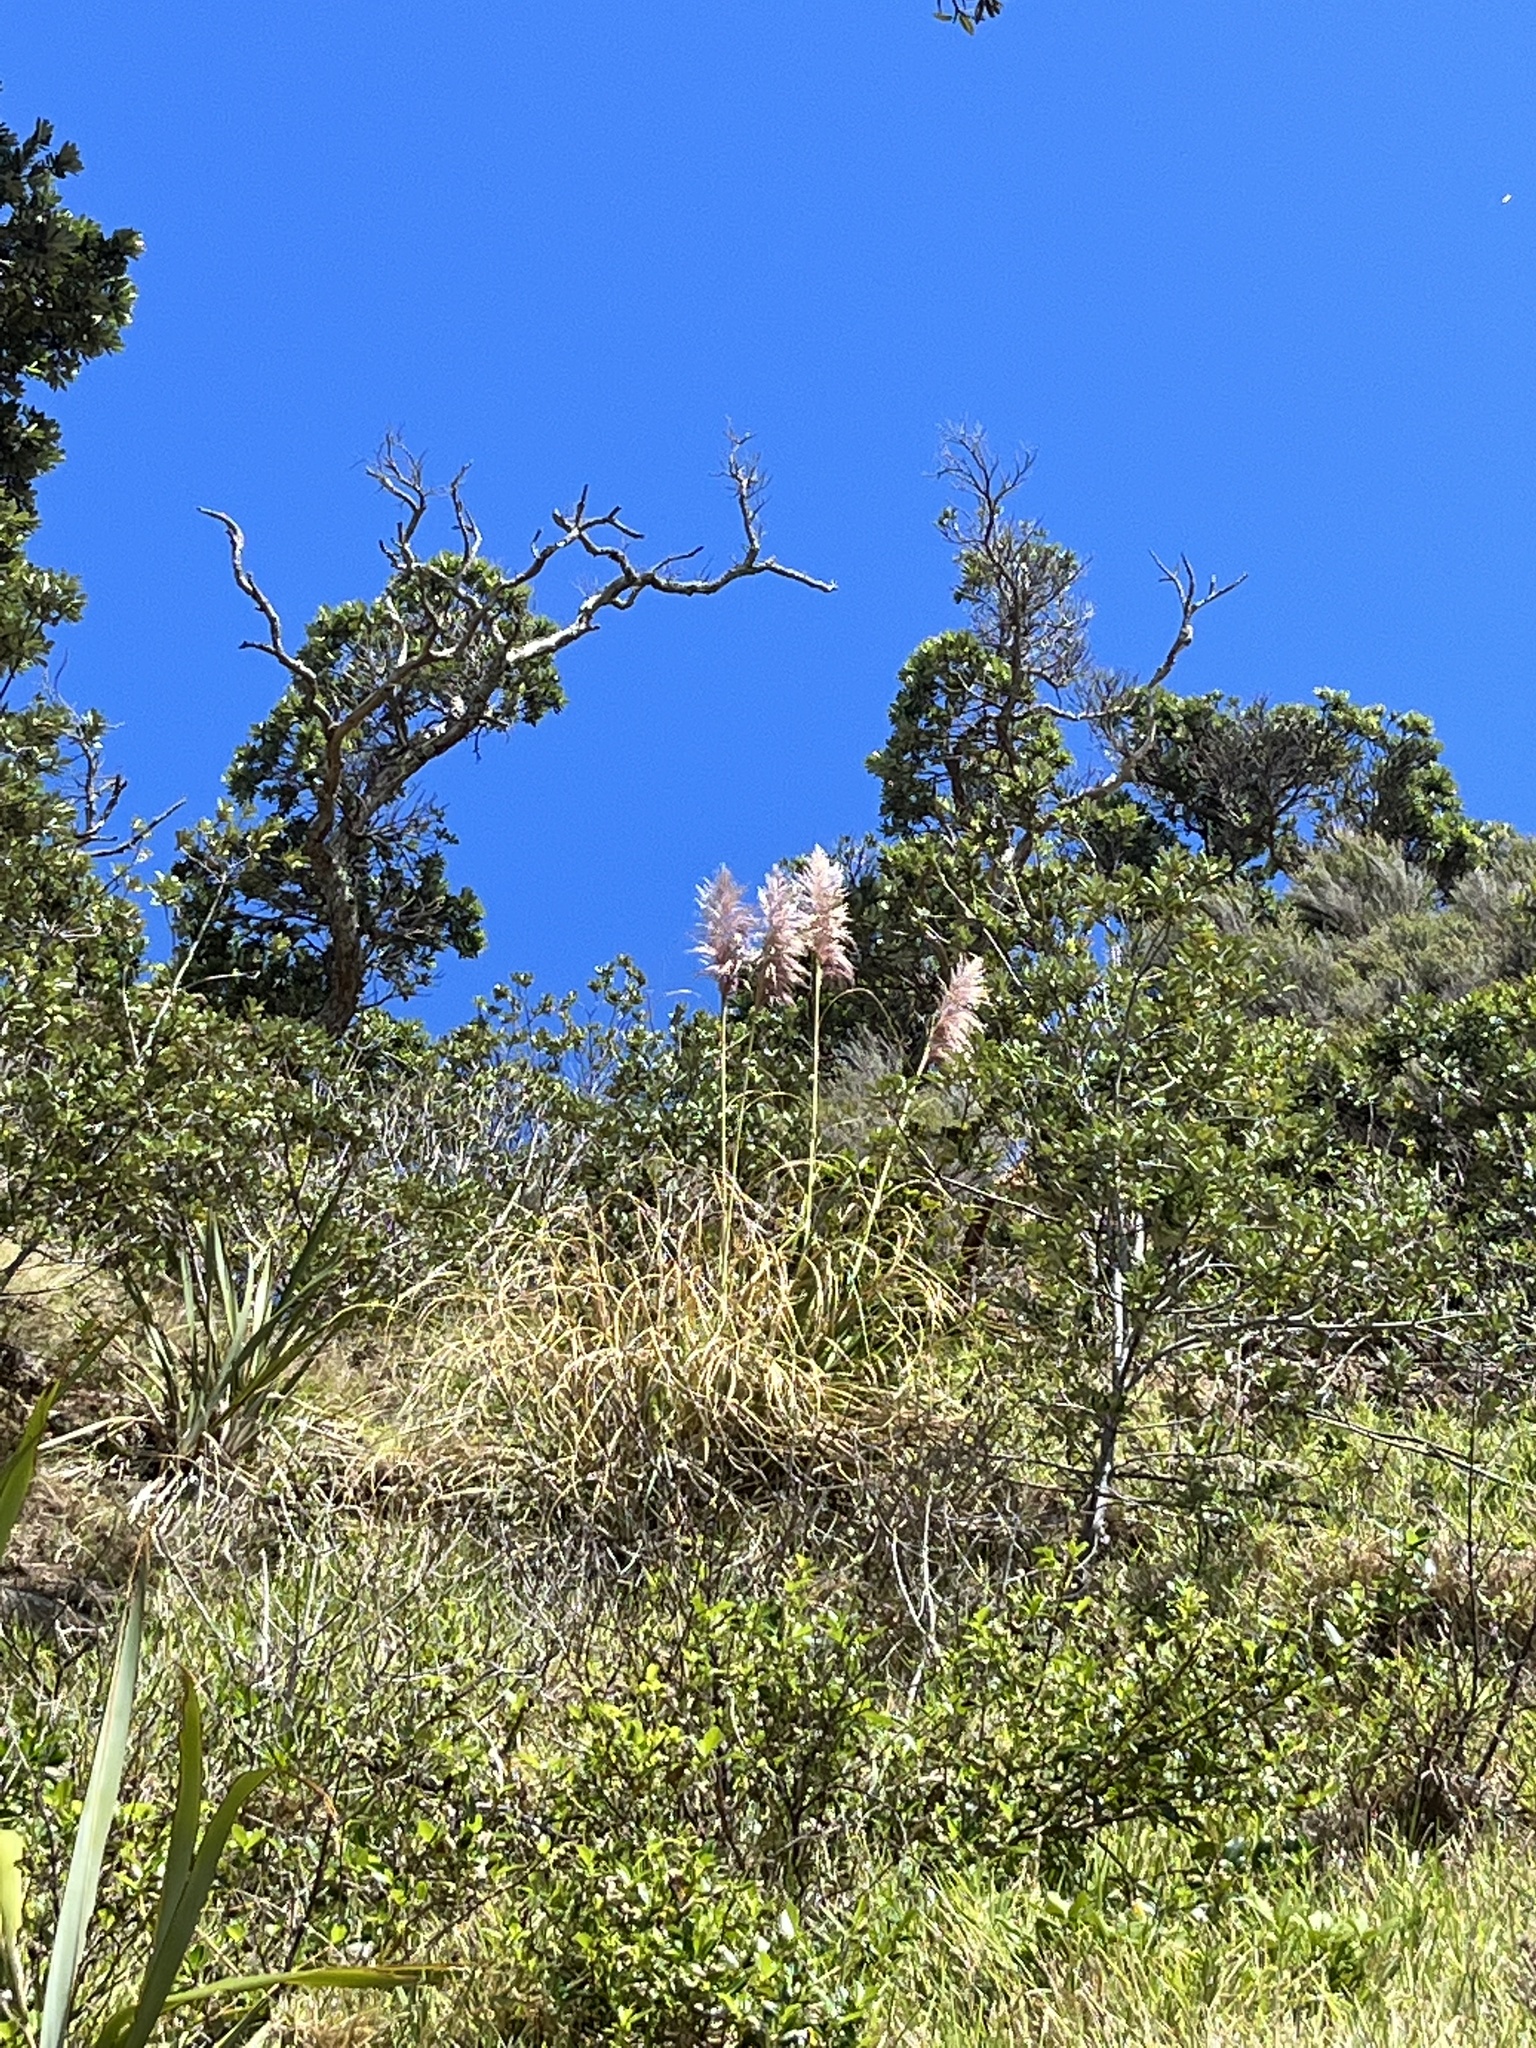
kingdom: Plantae
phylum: Tracheophyta
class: Liliopsida
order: Poales
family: Poaceae
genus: Cortaderia
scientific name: Cortaderia selloana
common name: Uruguayan pampas grass
